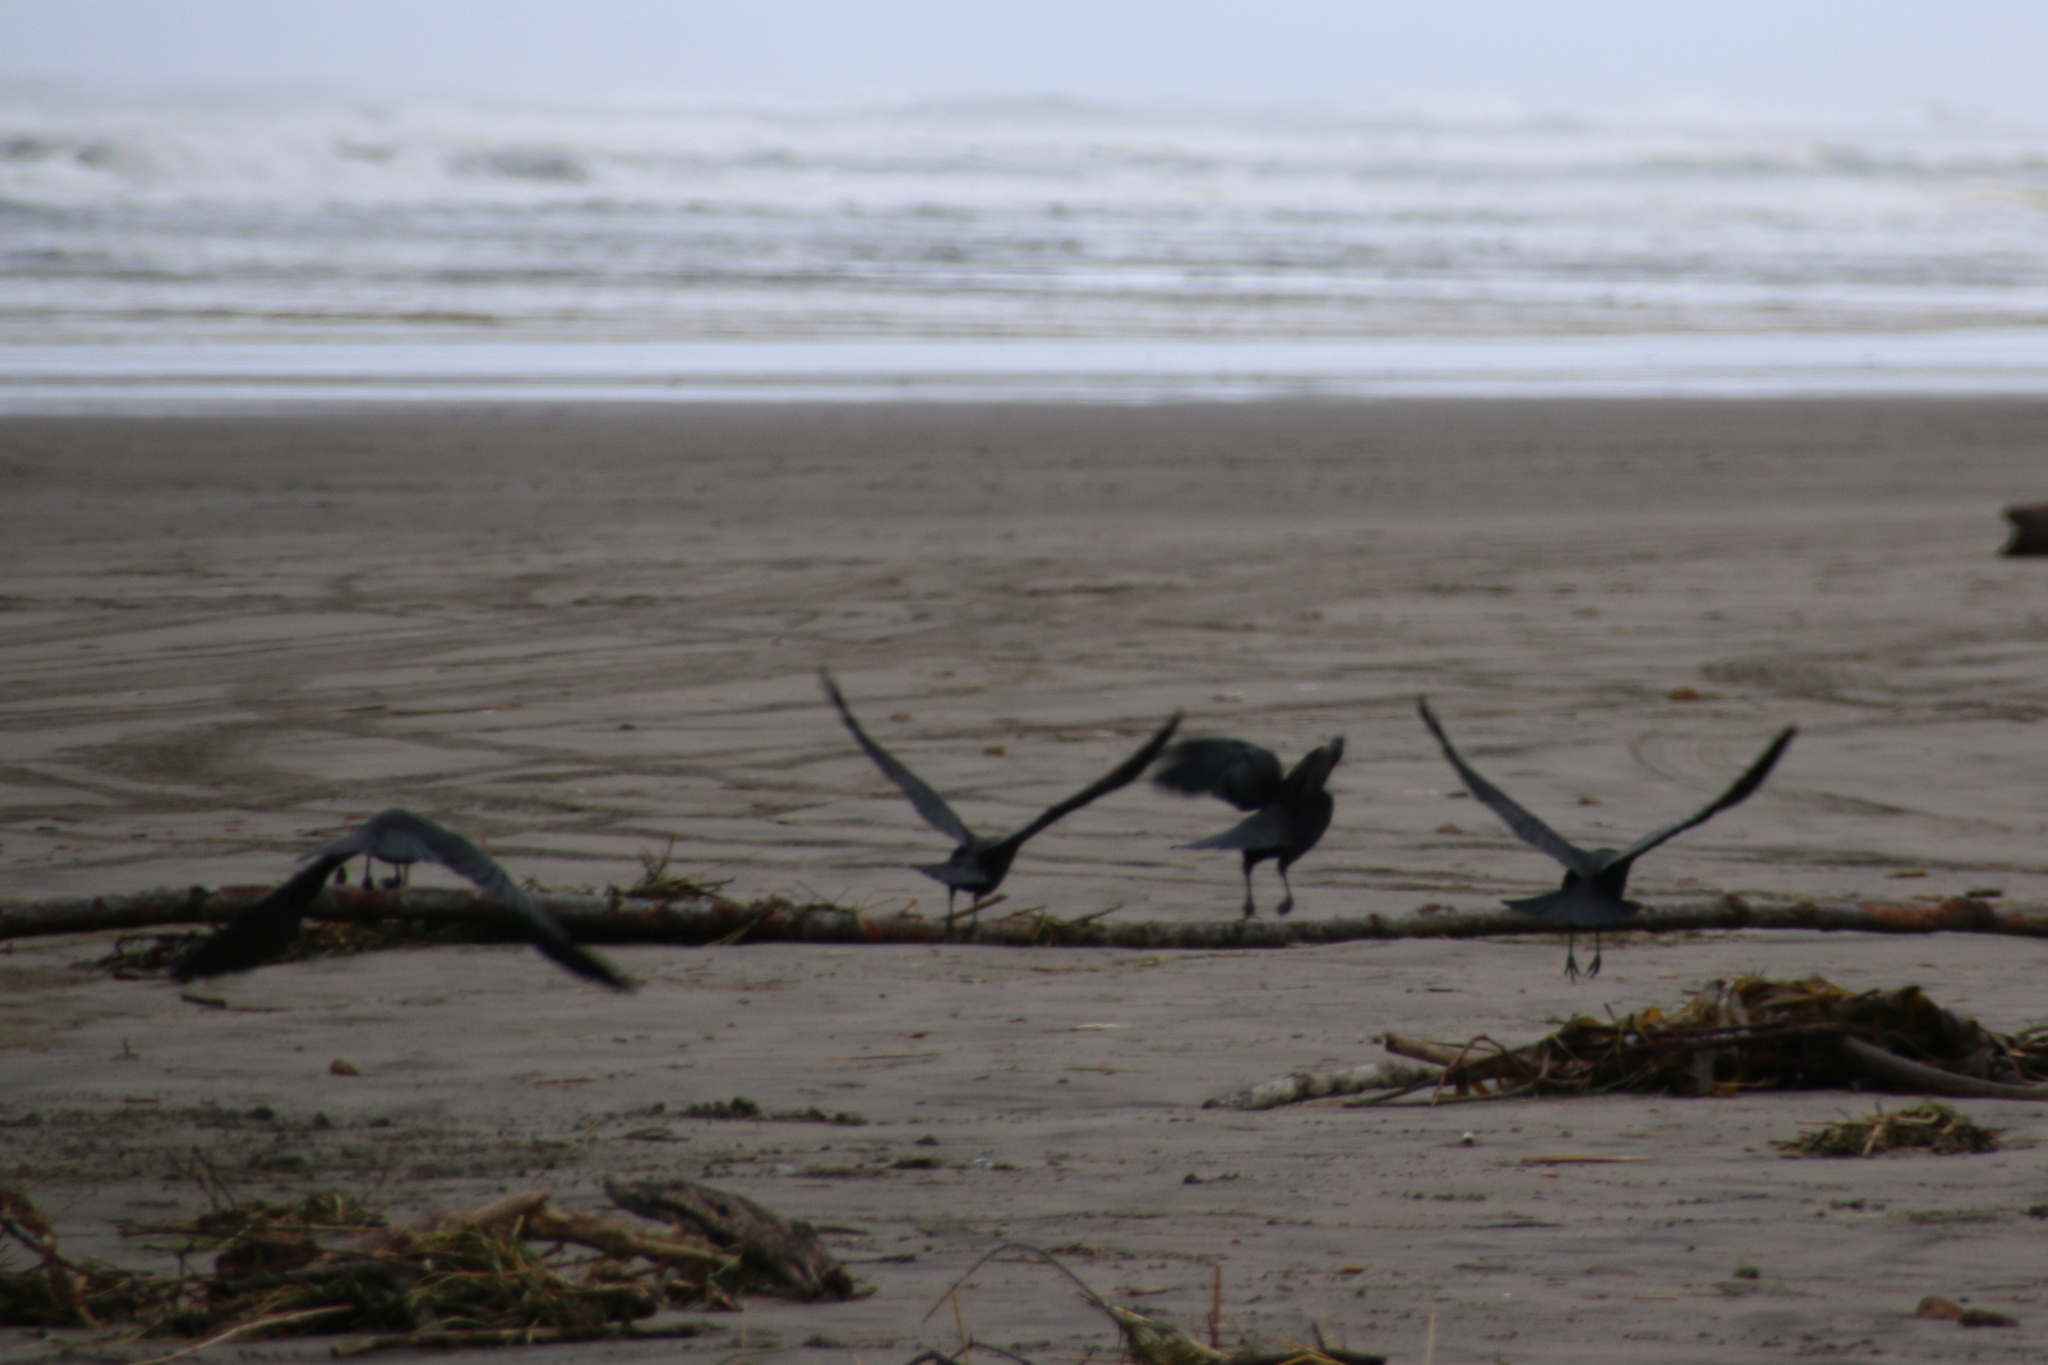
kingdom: Animalia
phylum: Chordata
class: Aves
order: Passeriformes
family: Corvidae
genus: Corvus
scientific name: Corvus brachyrhynchos
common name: American crow
